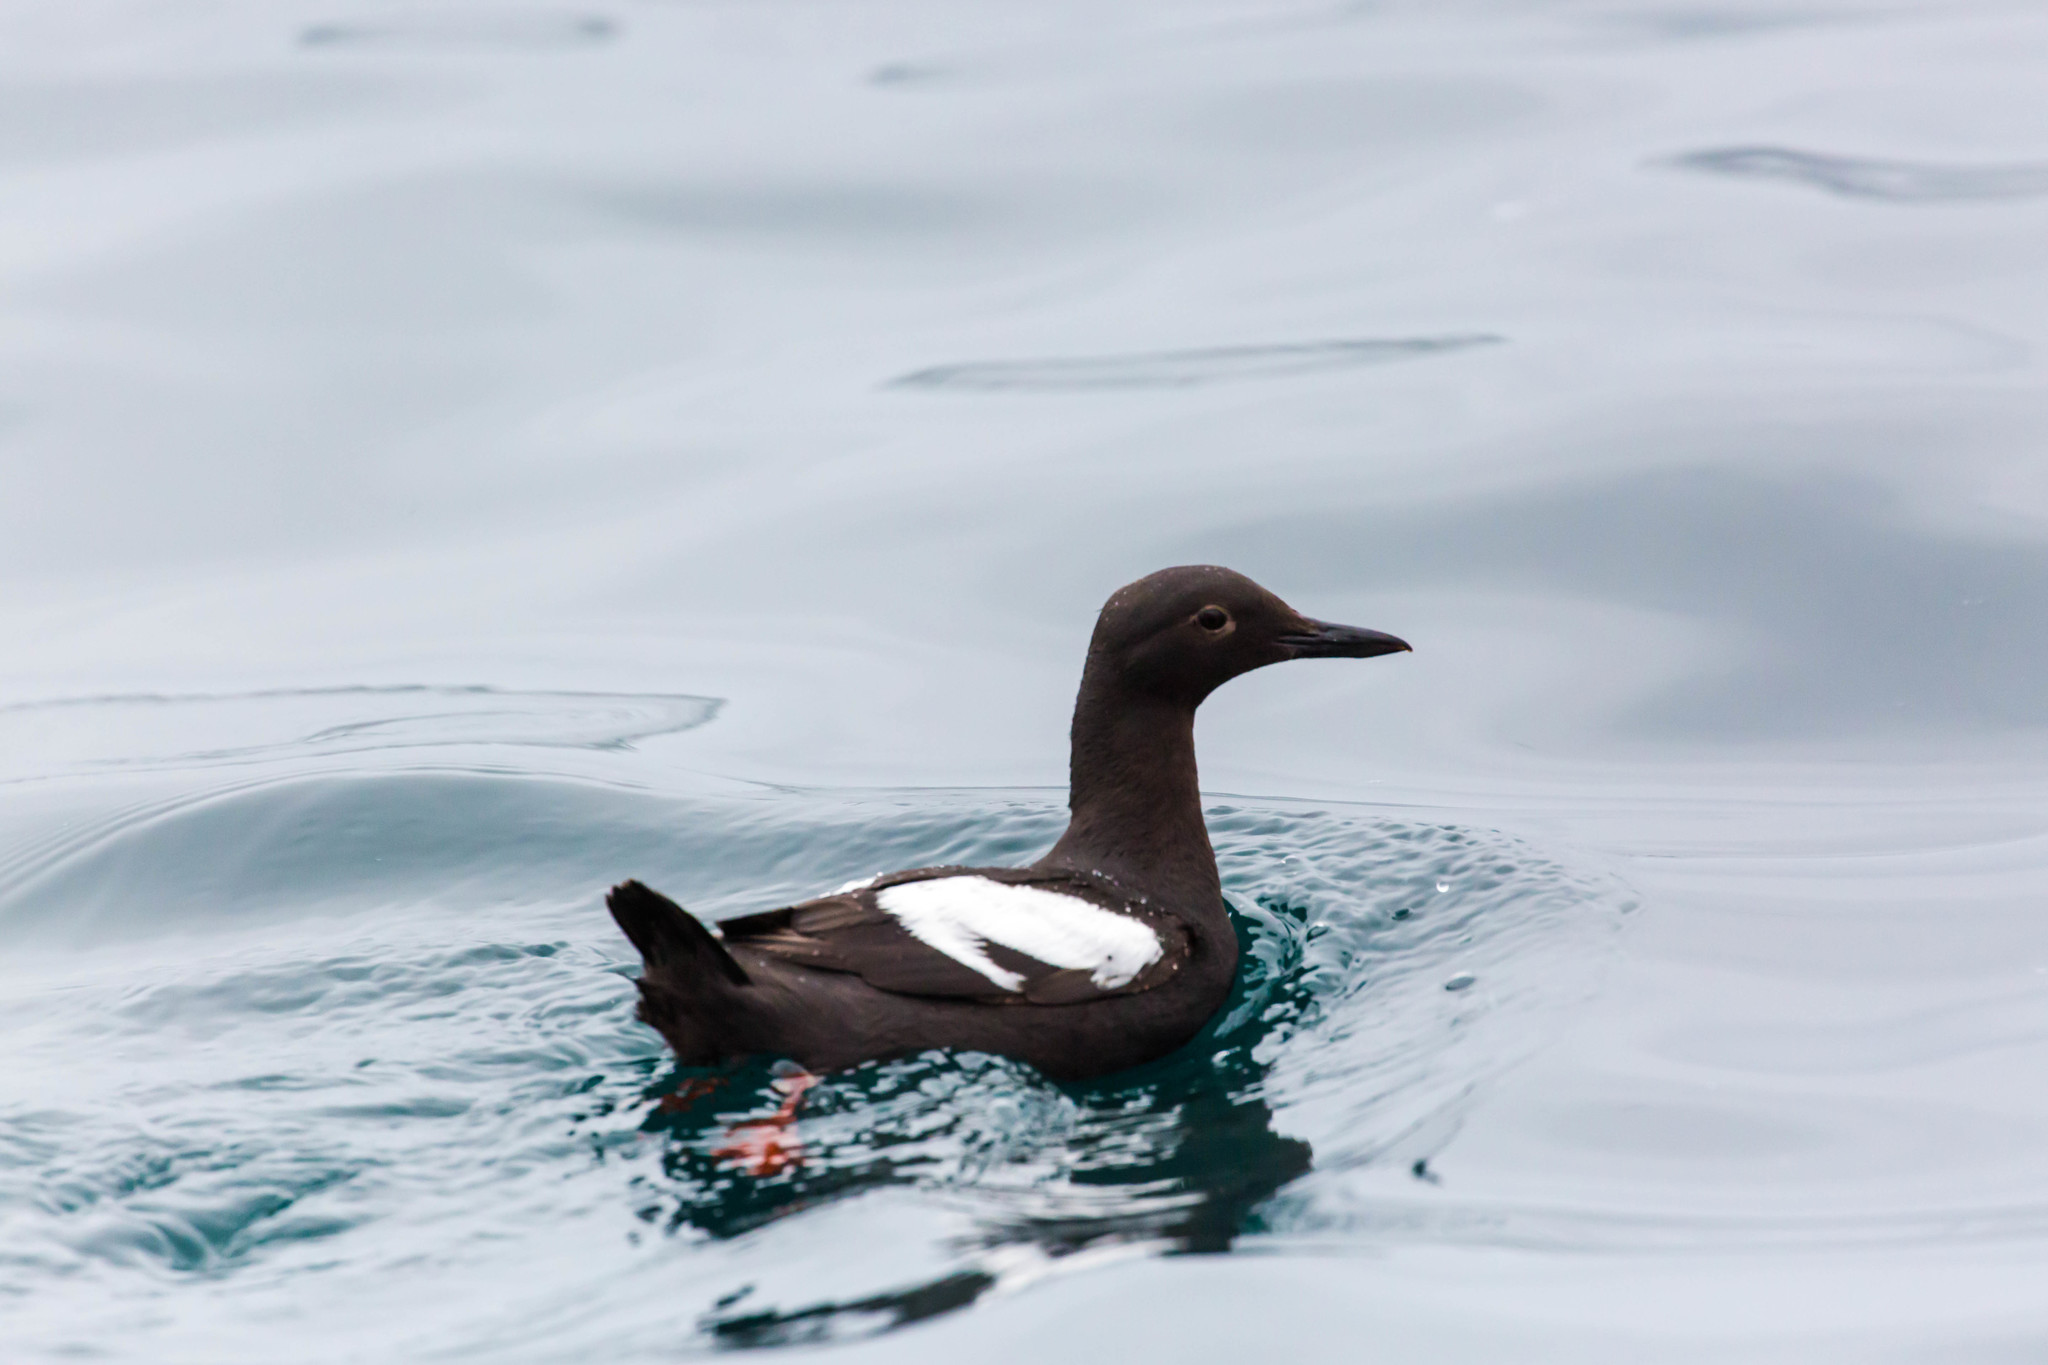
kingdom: Animalia
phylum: Chordata
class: Aves
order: Charadriiformes
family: Alcidae
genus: Cepphus
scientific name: Cepphus columba
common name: Pigeon guillemot
